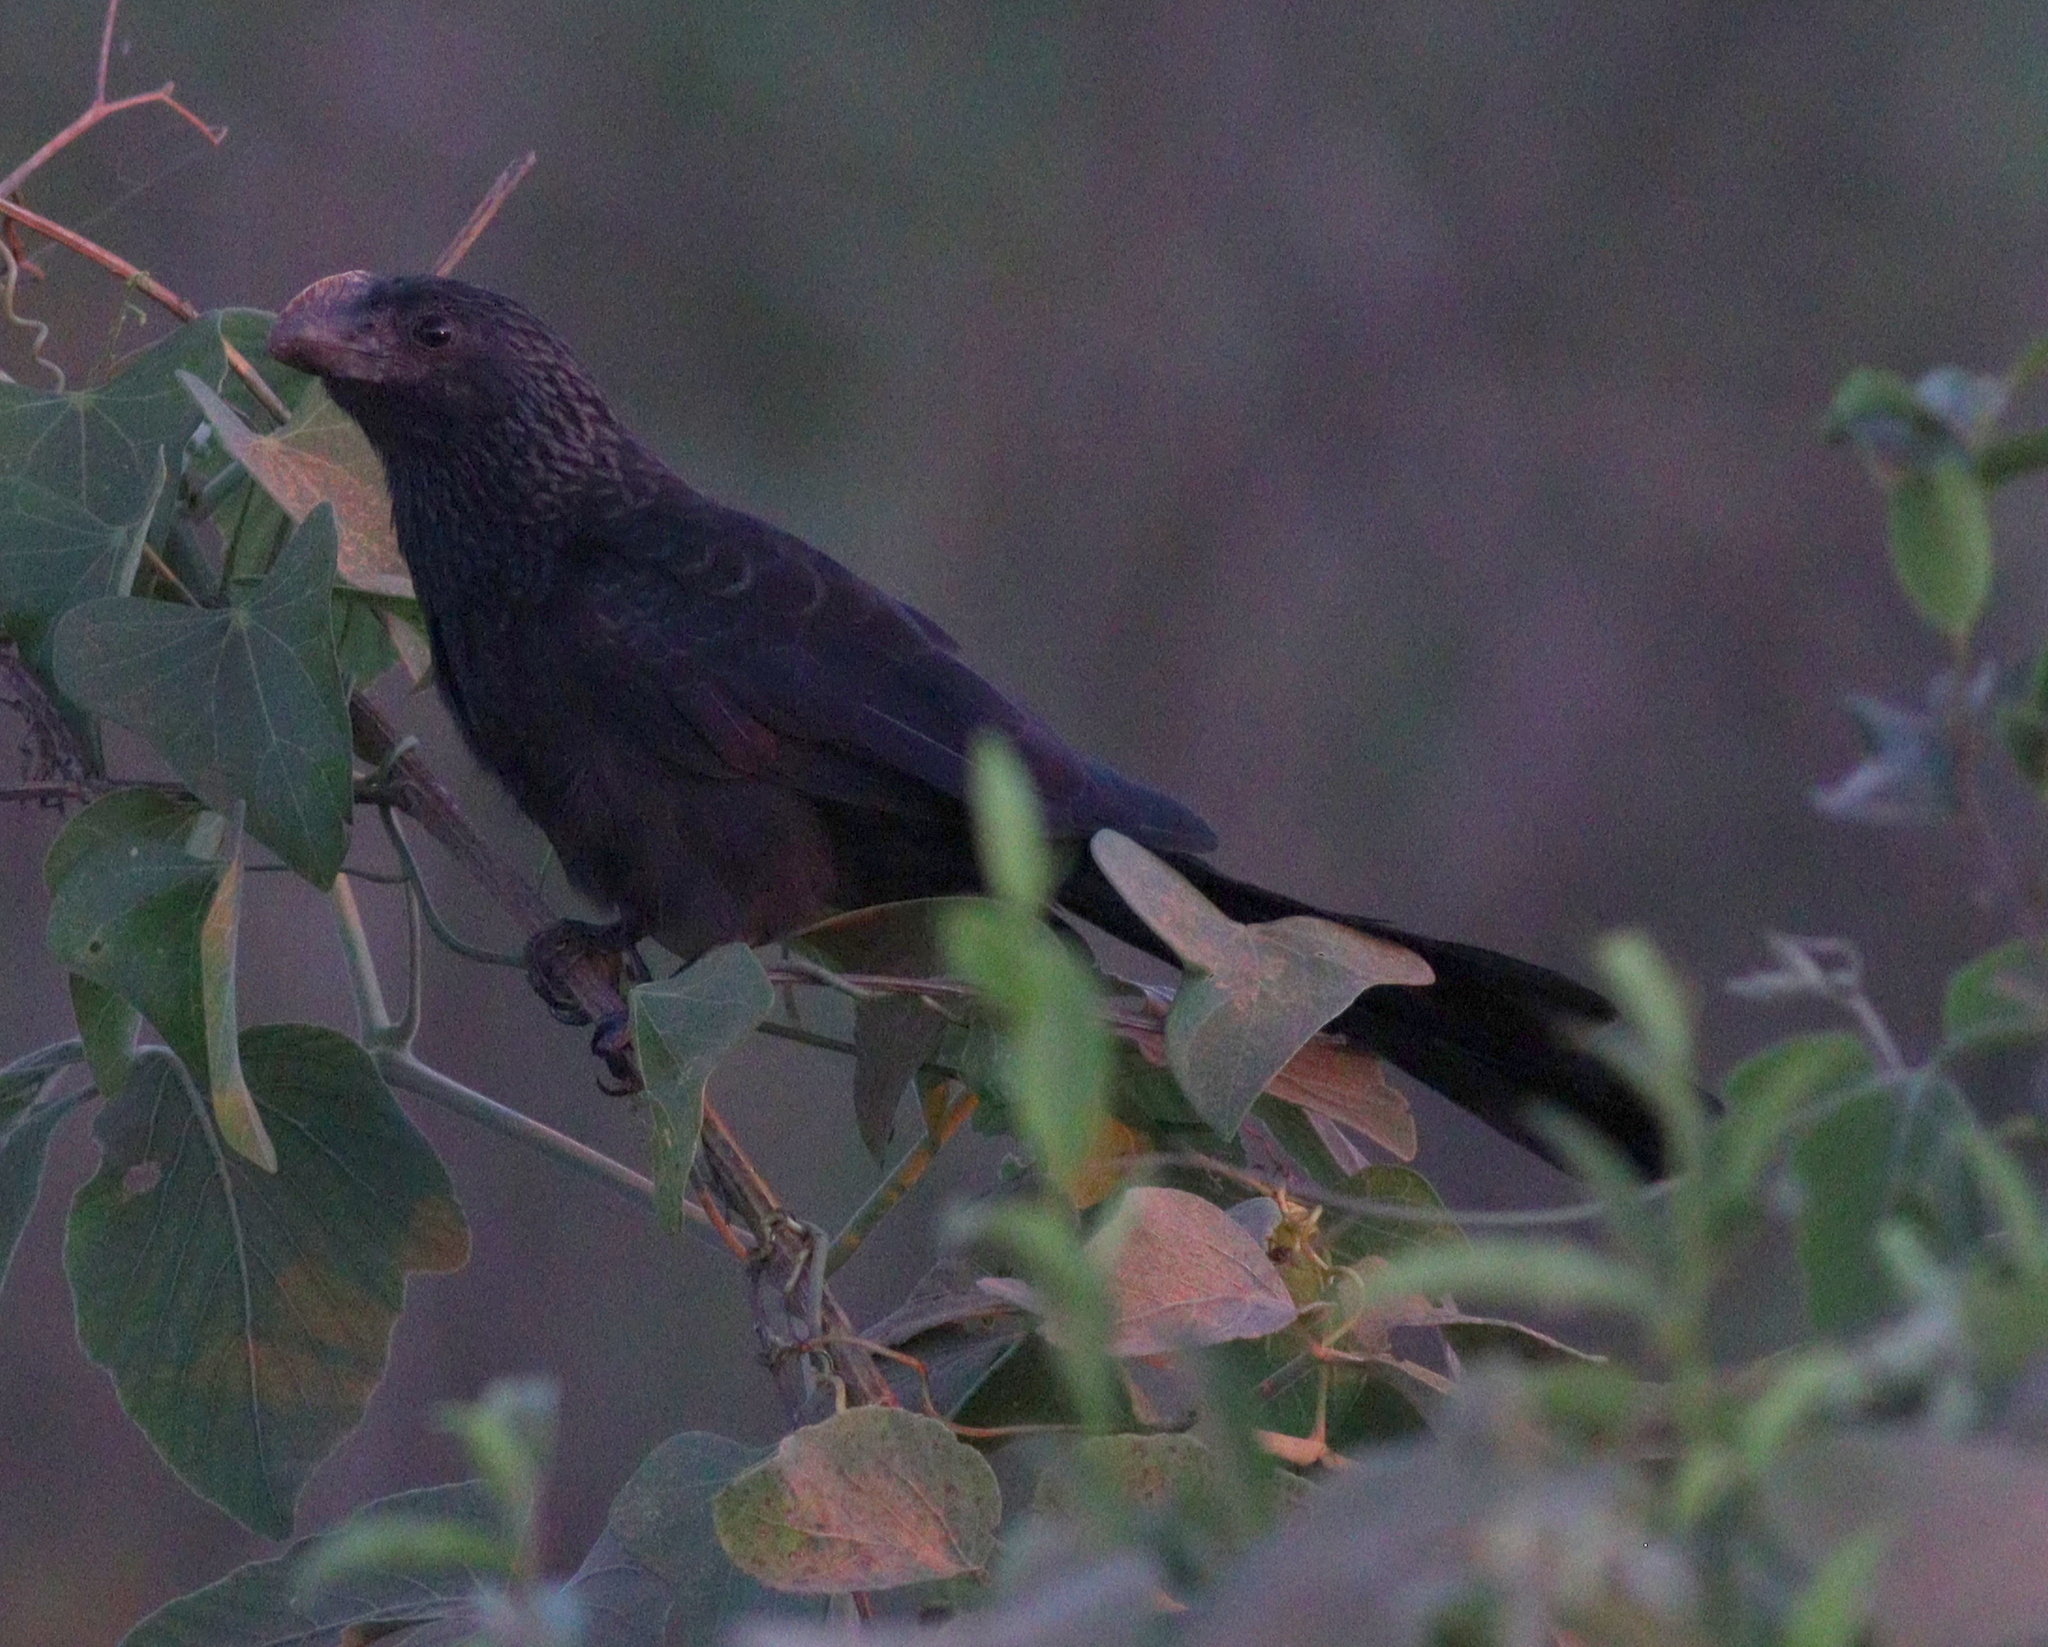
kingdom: Animalia
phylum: Chordata
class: Aves
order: Cuculiformes
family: Cuculidae
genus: Crotophaga
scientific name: Crotophaga ani
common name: Smooth-billed ani
